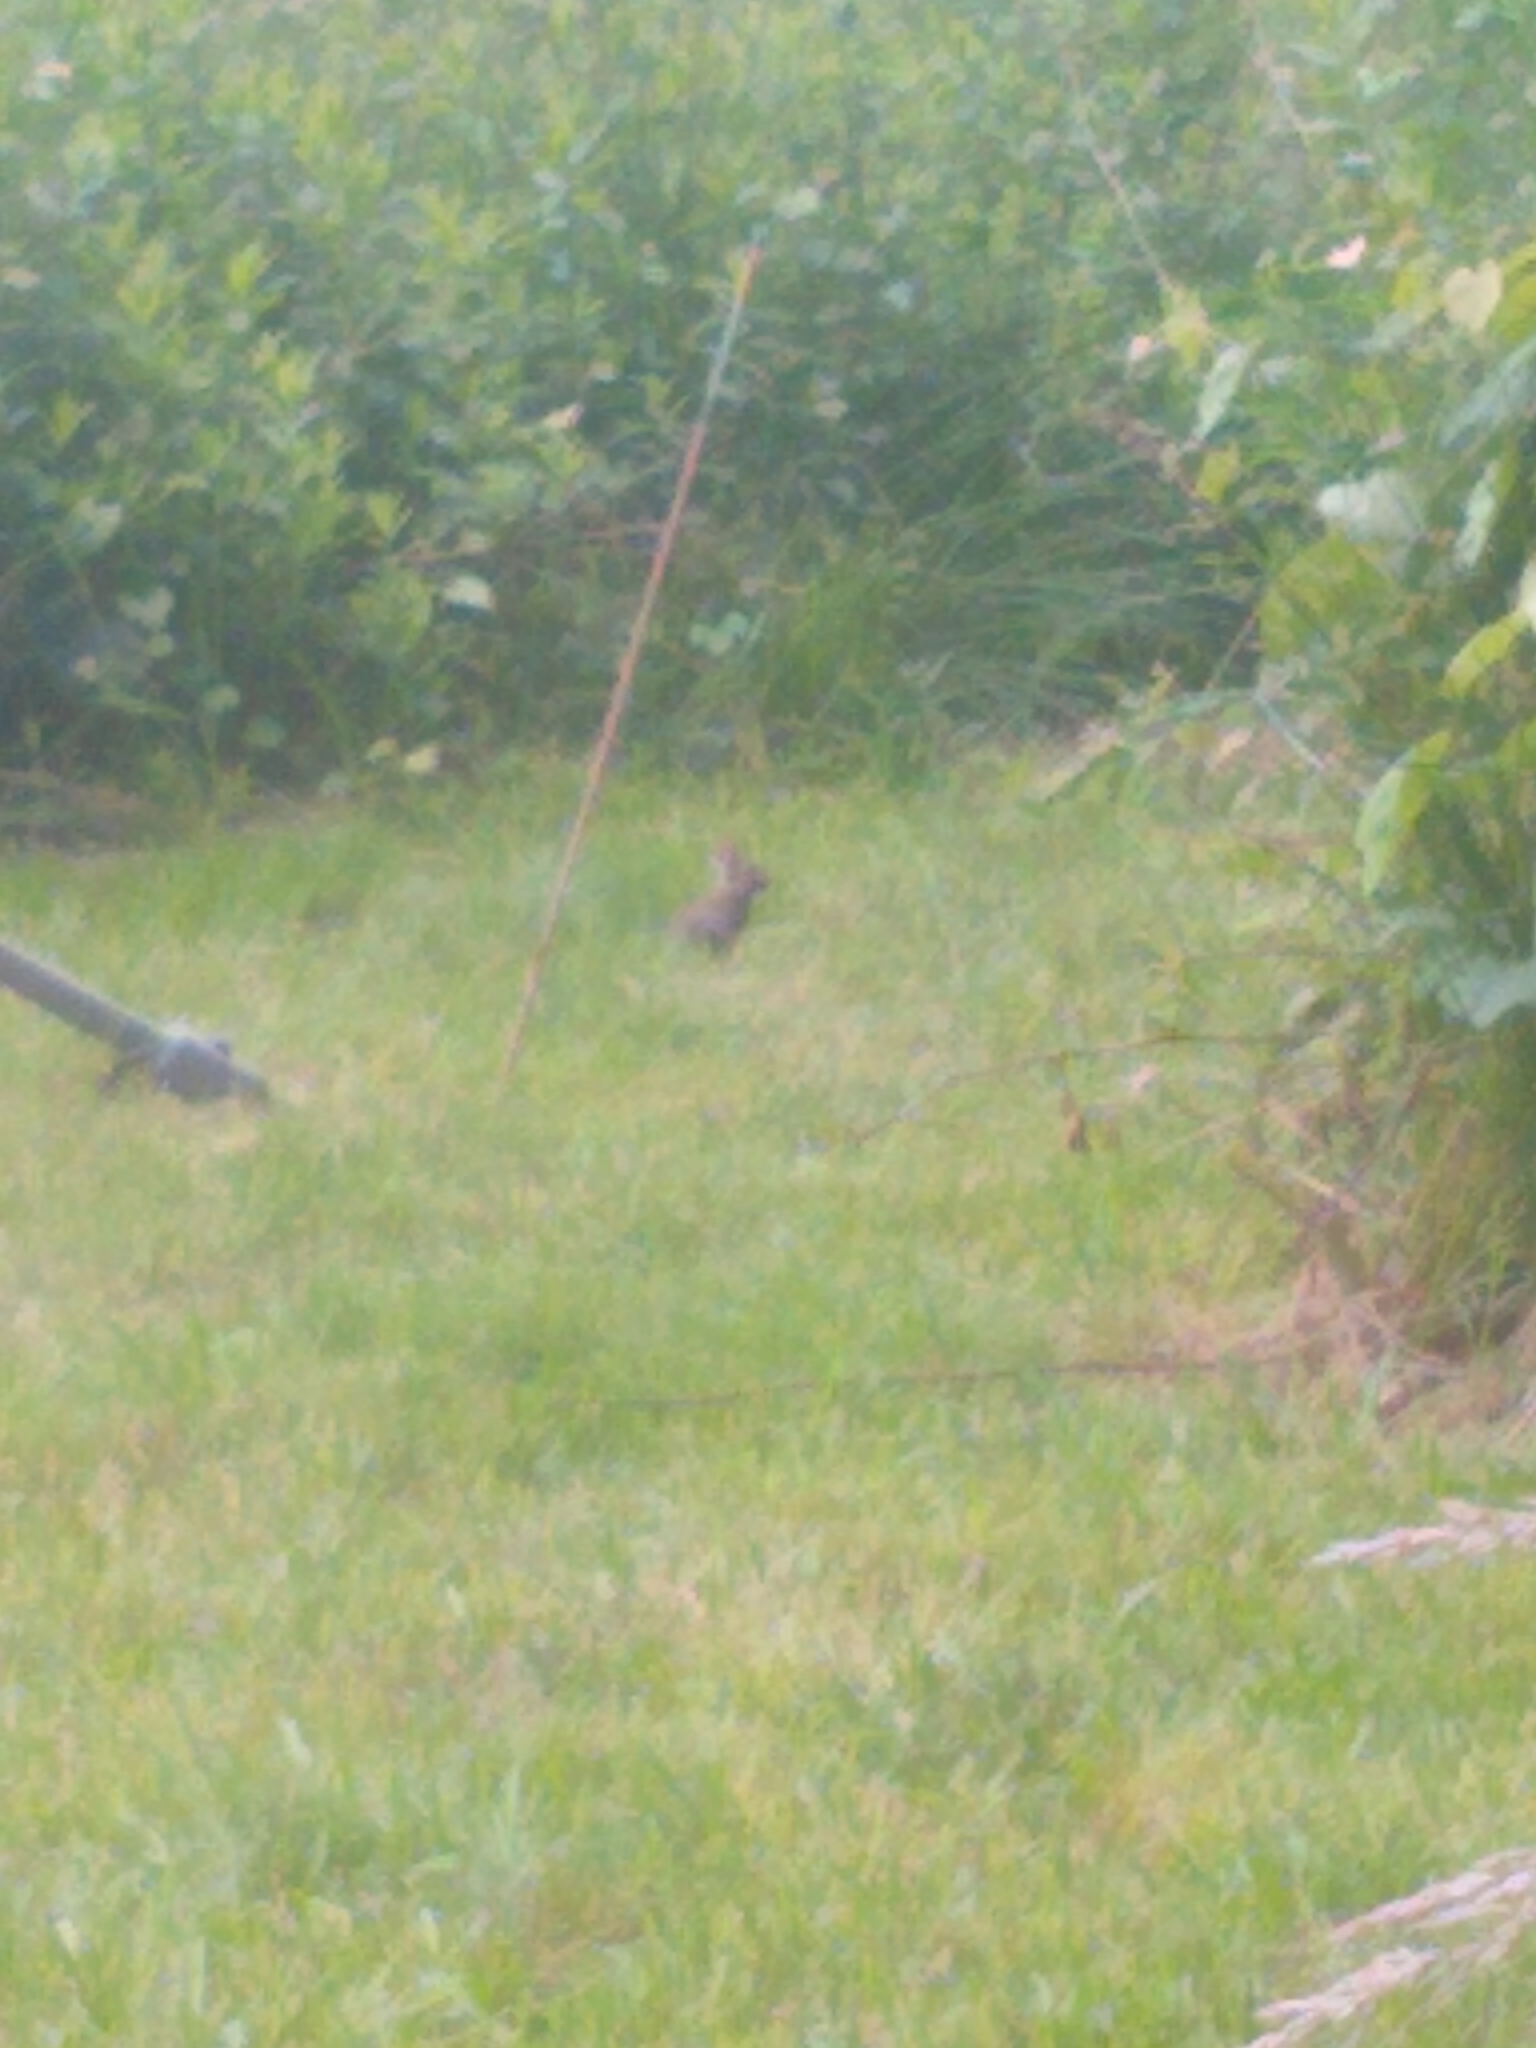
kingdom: Animalia
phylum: Chordata
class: Mammalia
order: Lagomorpha
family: Leporidae
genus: Sylvilagus
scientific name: Sylvilagus floridanus
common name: Eastern cottontail
